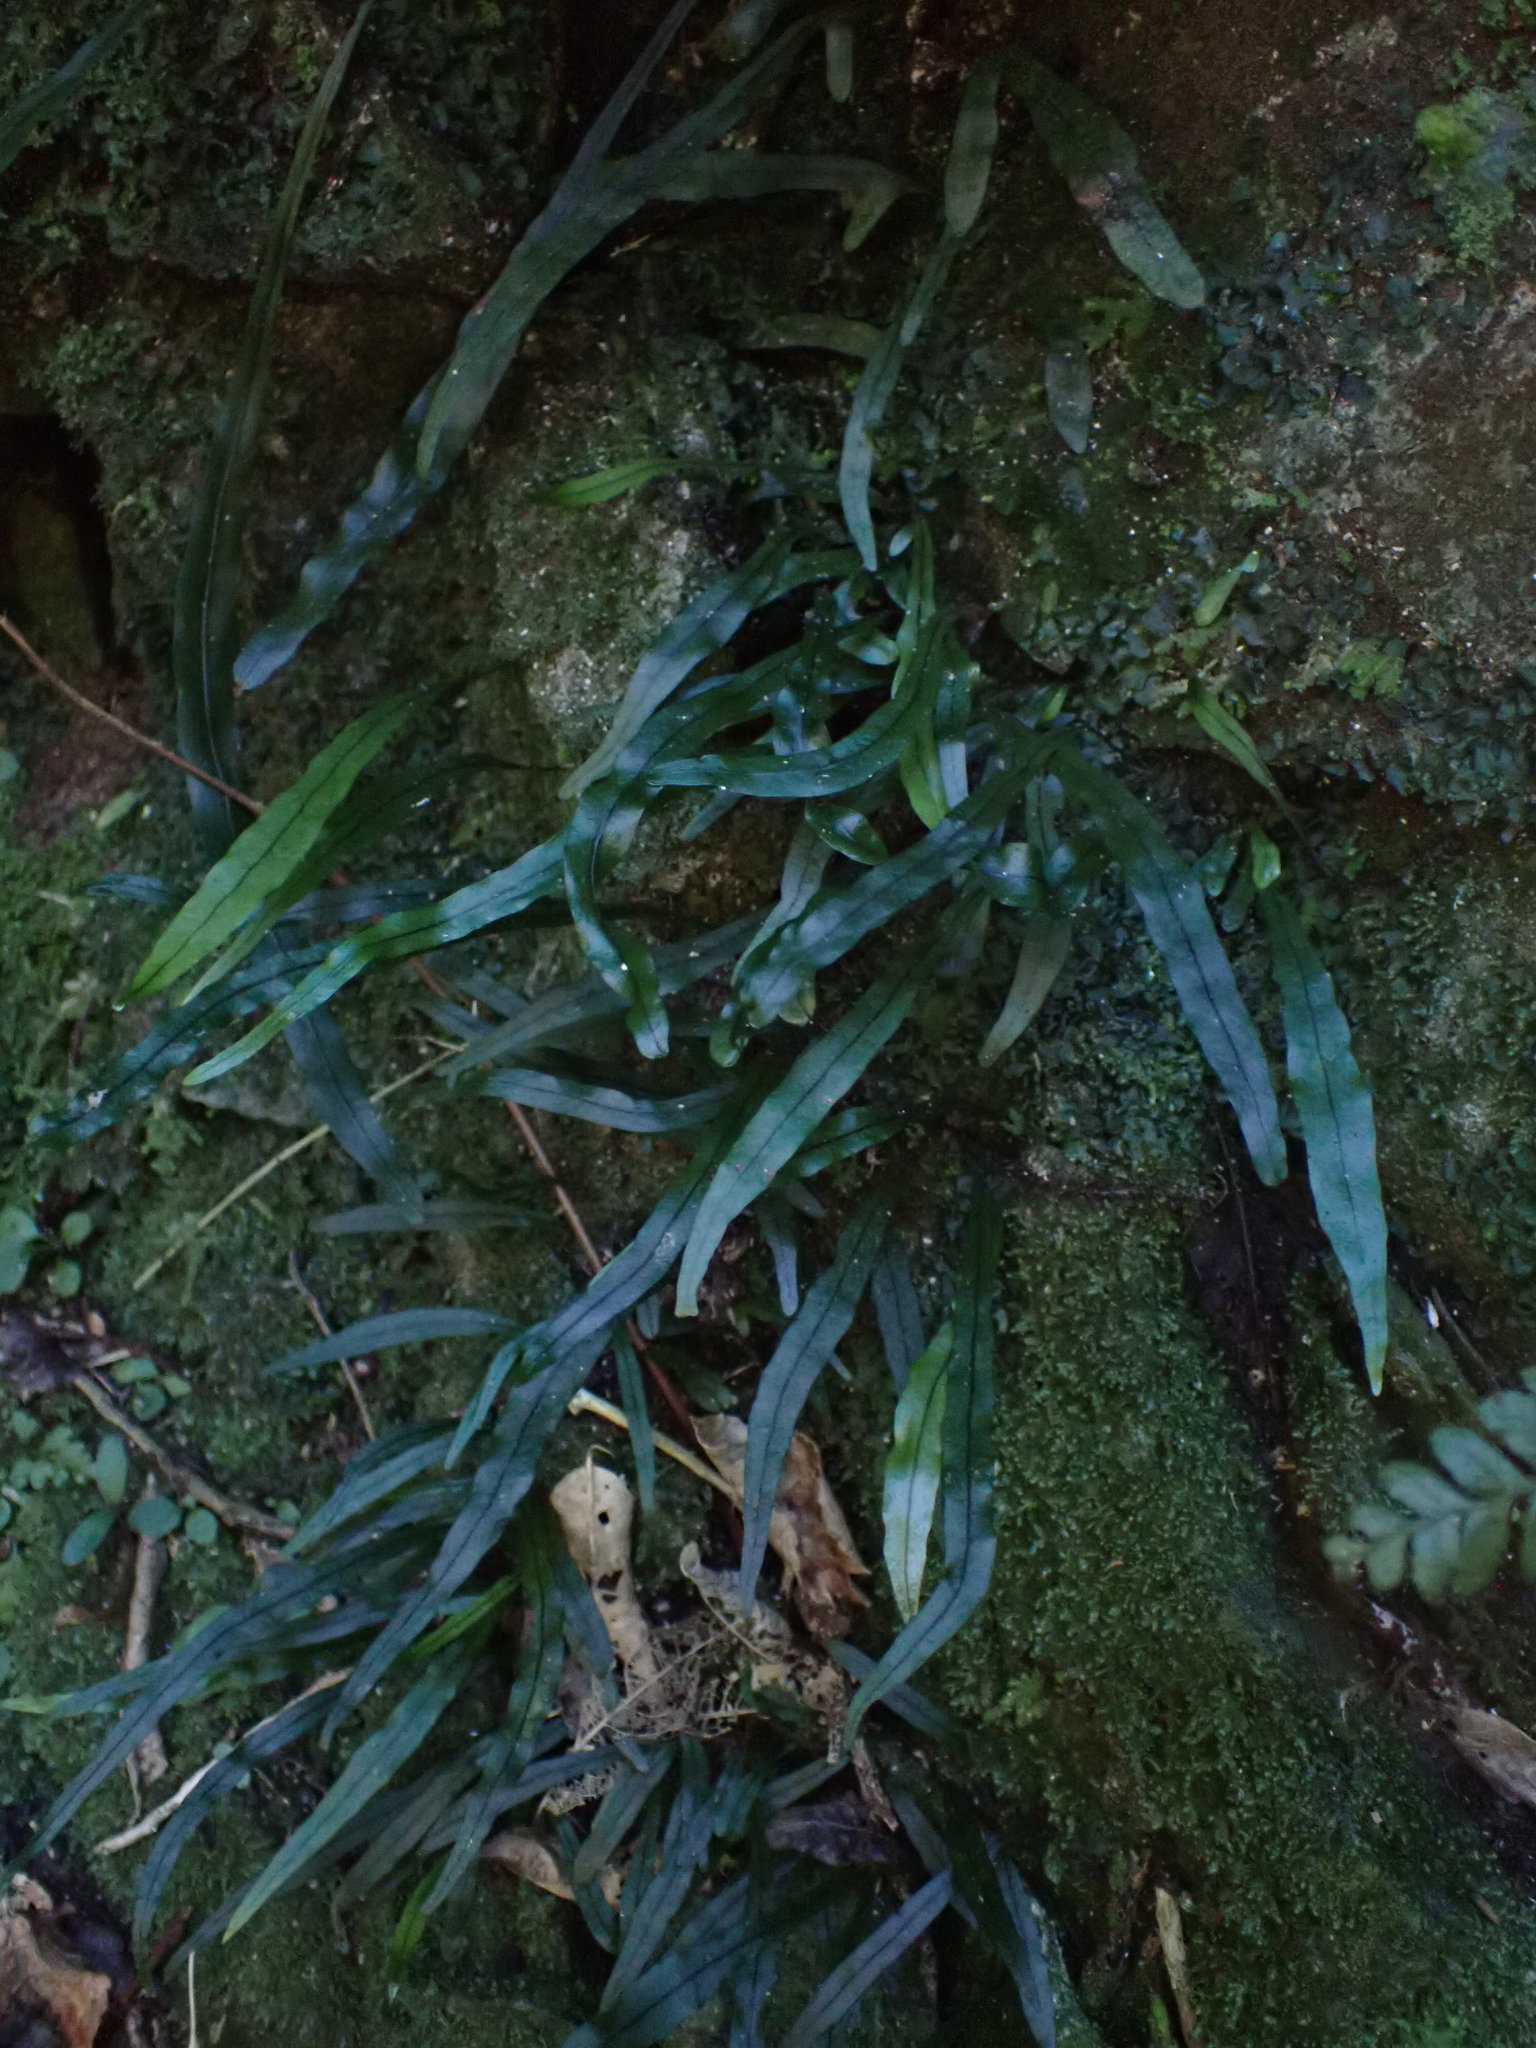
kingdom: Plantae
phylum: Tracheophyta
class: Polypodiopsida
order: Polypodiales
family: Polypodiaceae
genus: Lecanopteris
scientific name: Lecanopteris scandens
